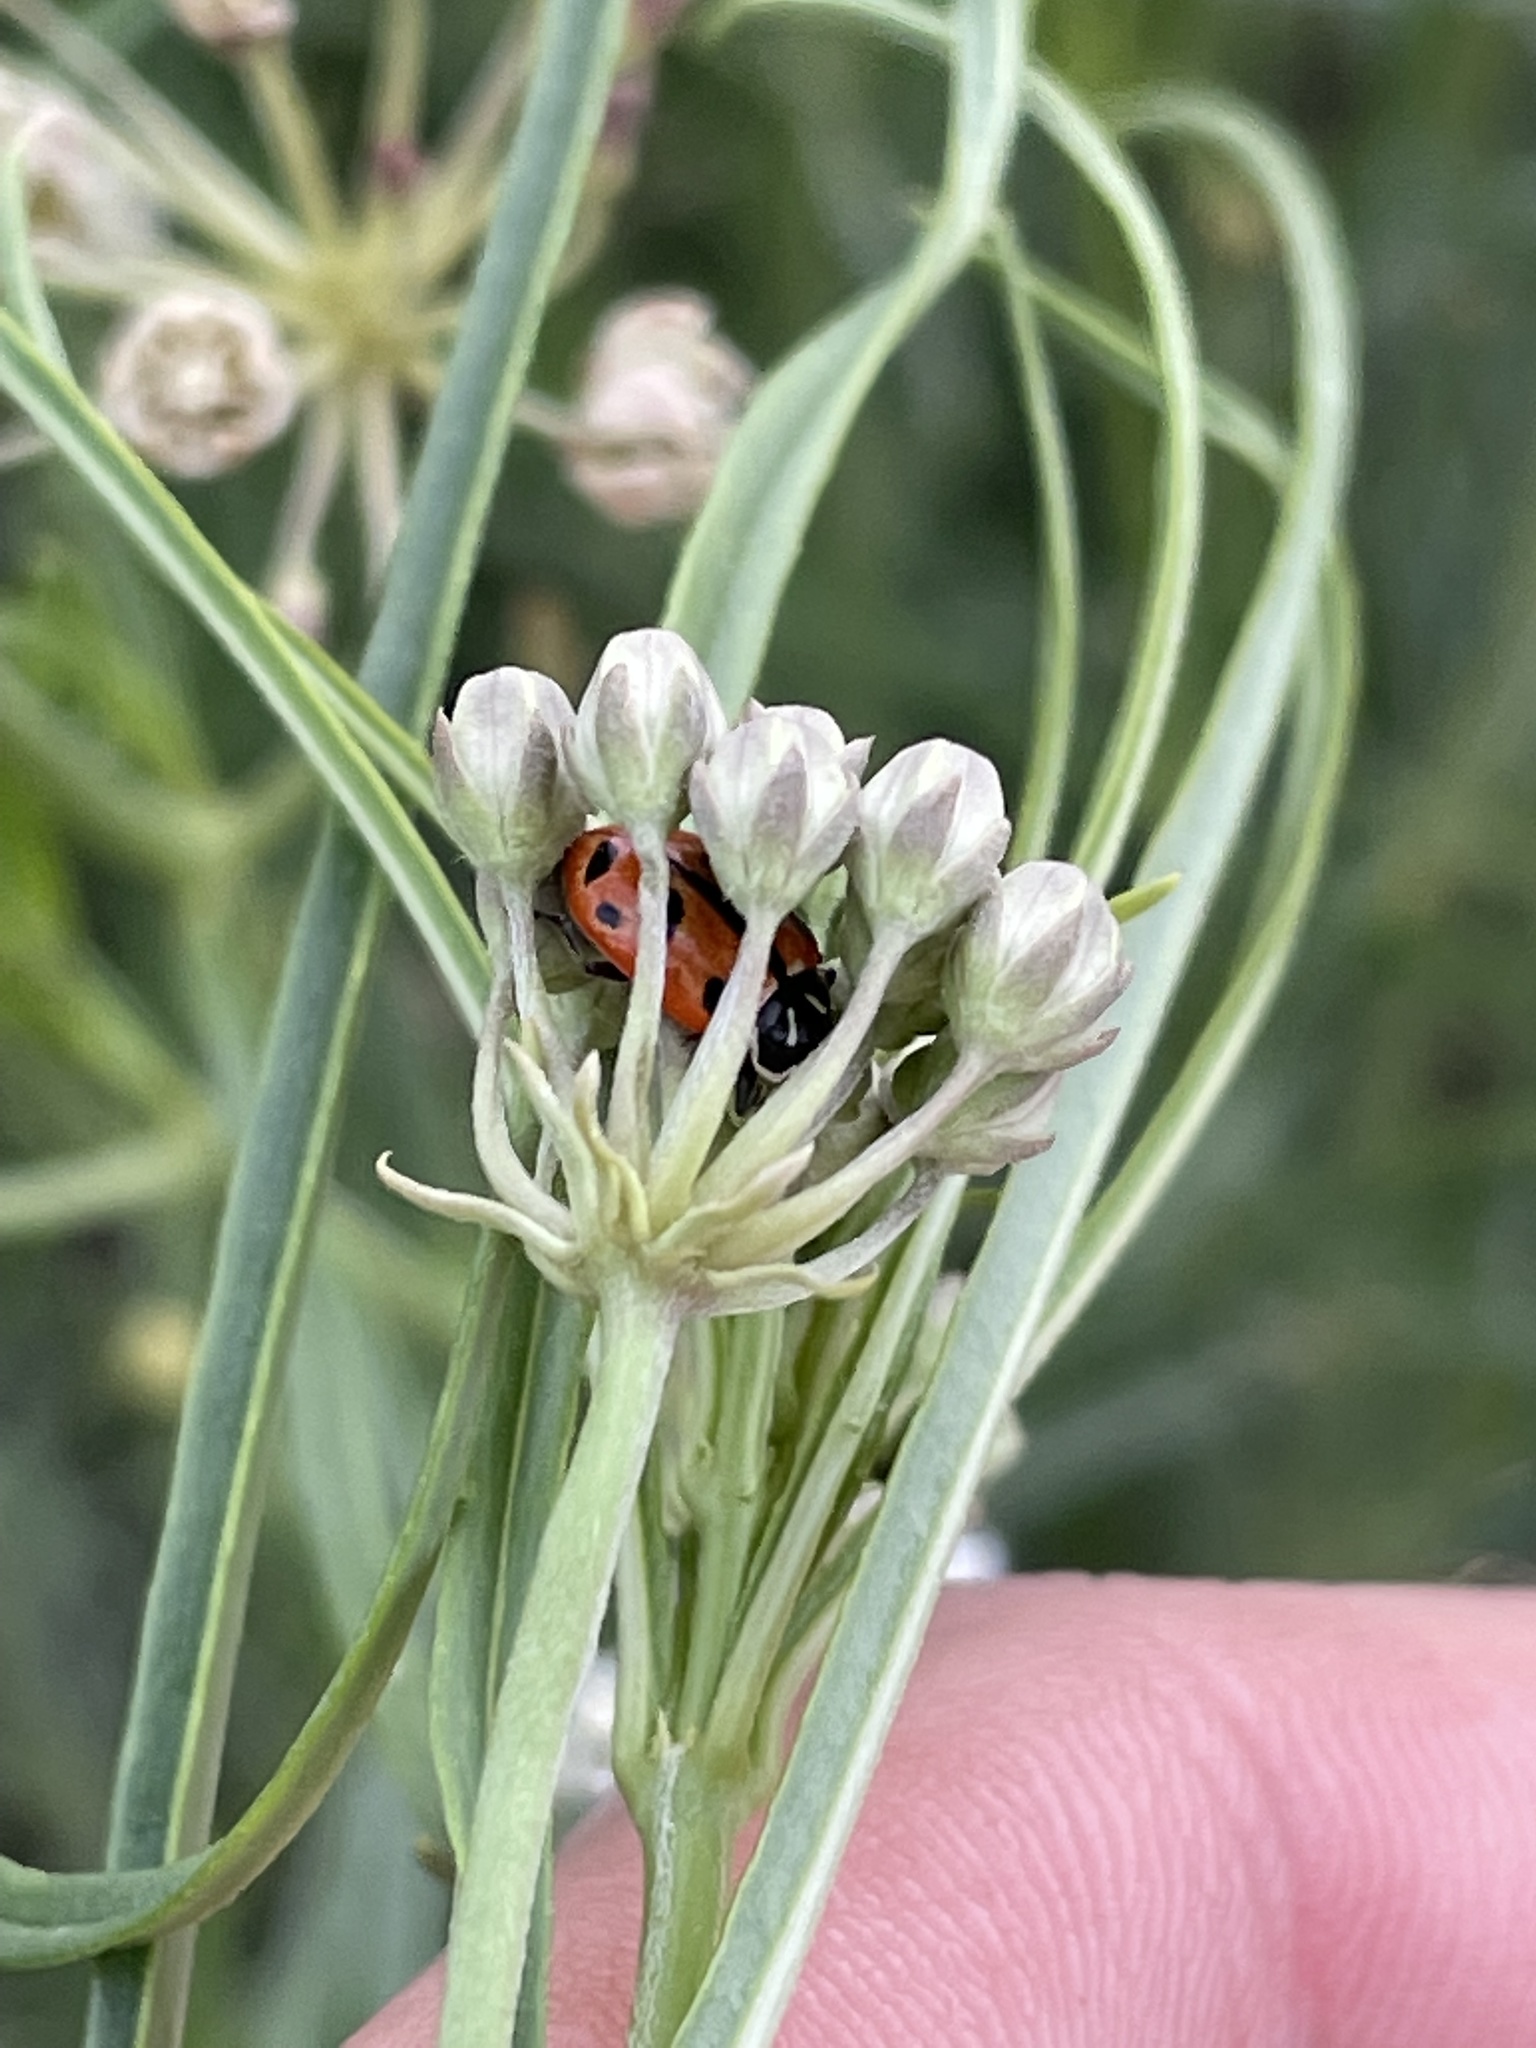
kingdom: Animalia
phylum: Arthropoda
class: Insecta
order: Coleoptera
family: Coccinellidae
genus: Hippodamia
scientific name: Hippodamia convergens
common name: Convergent lady beetle
